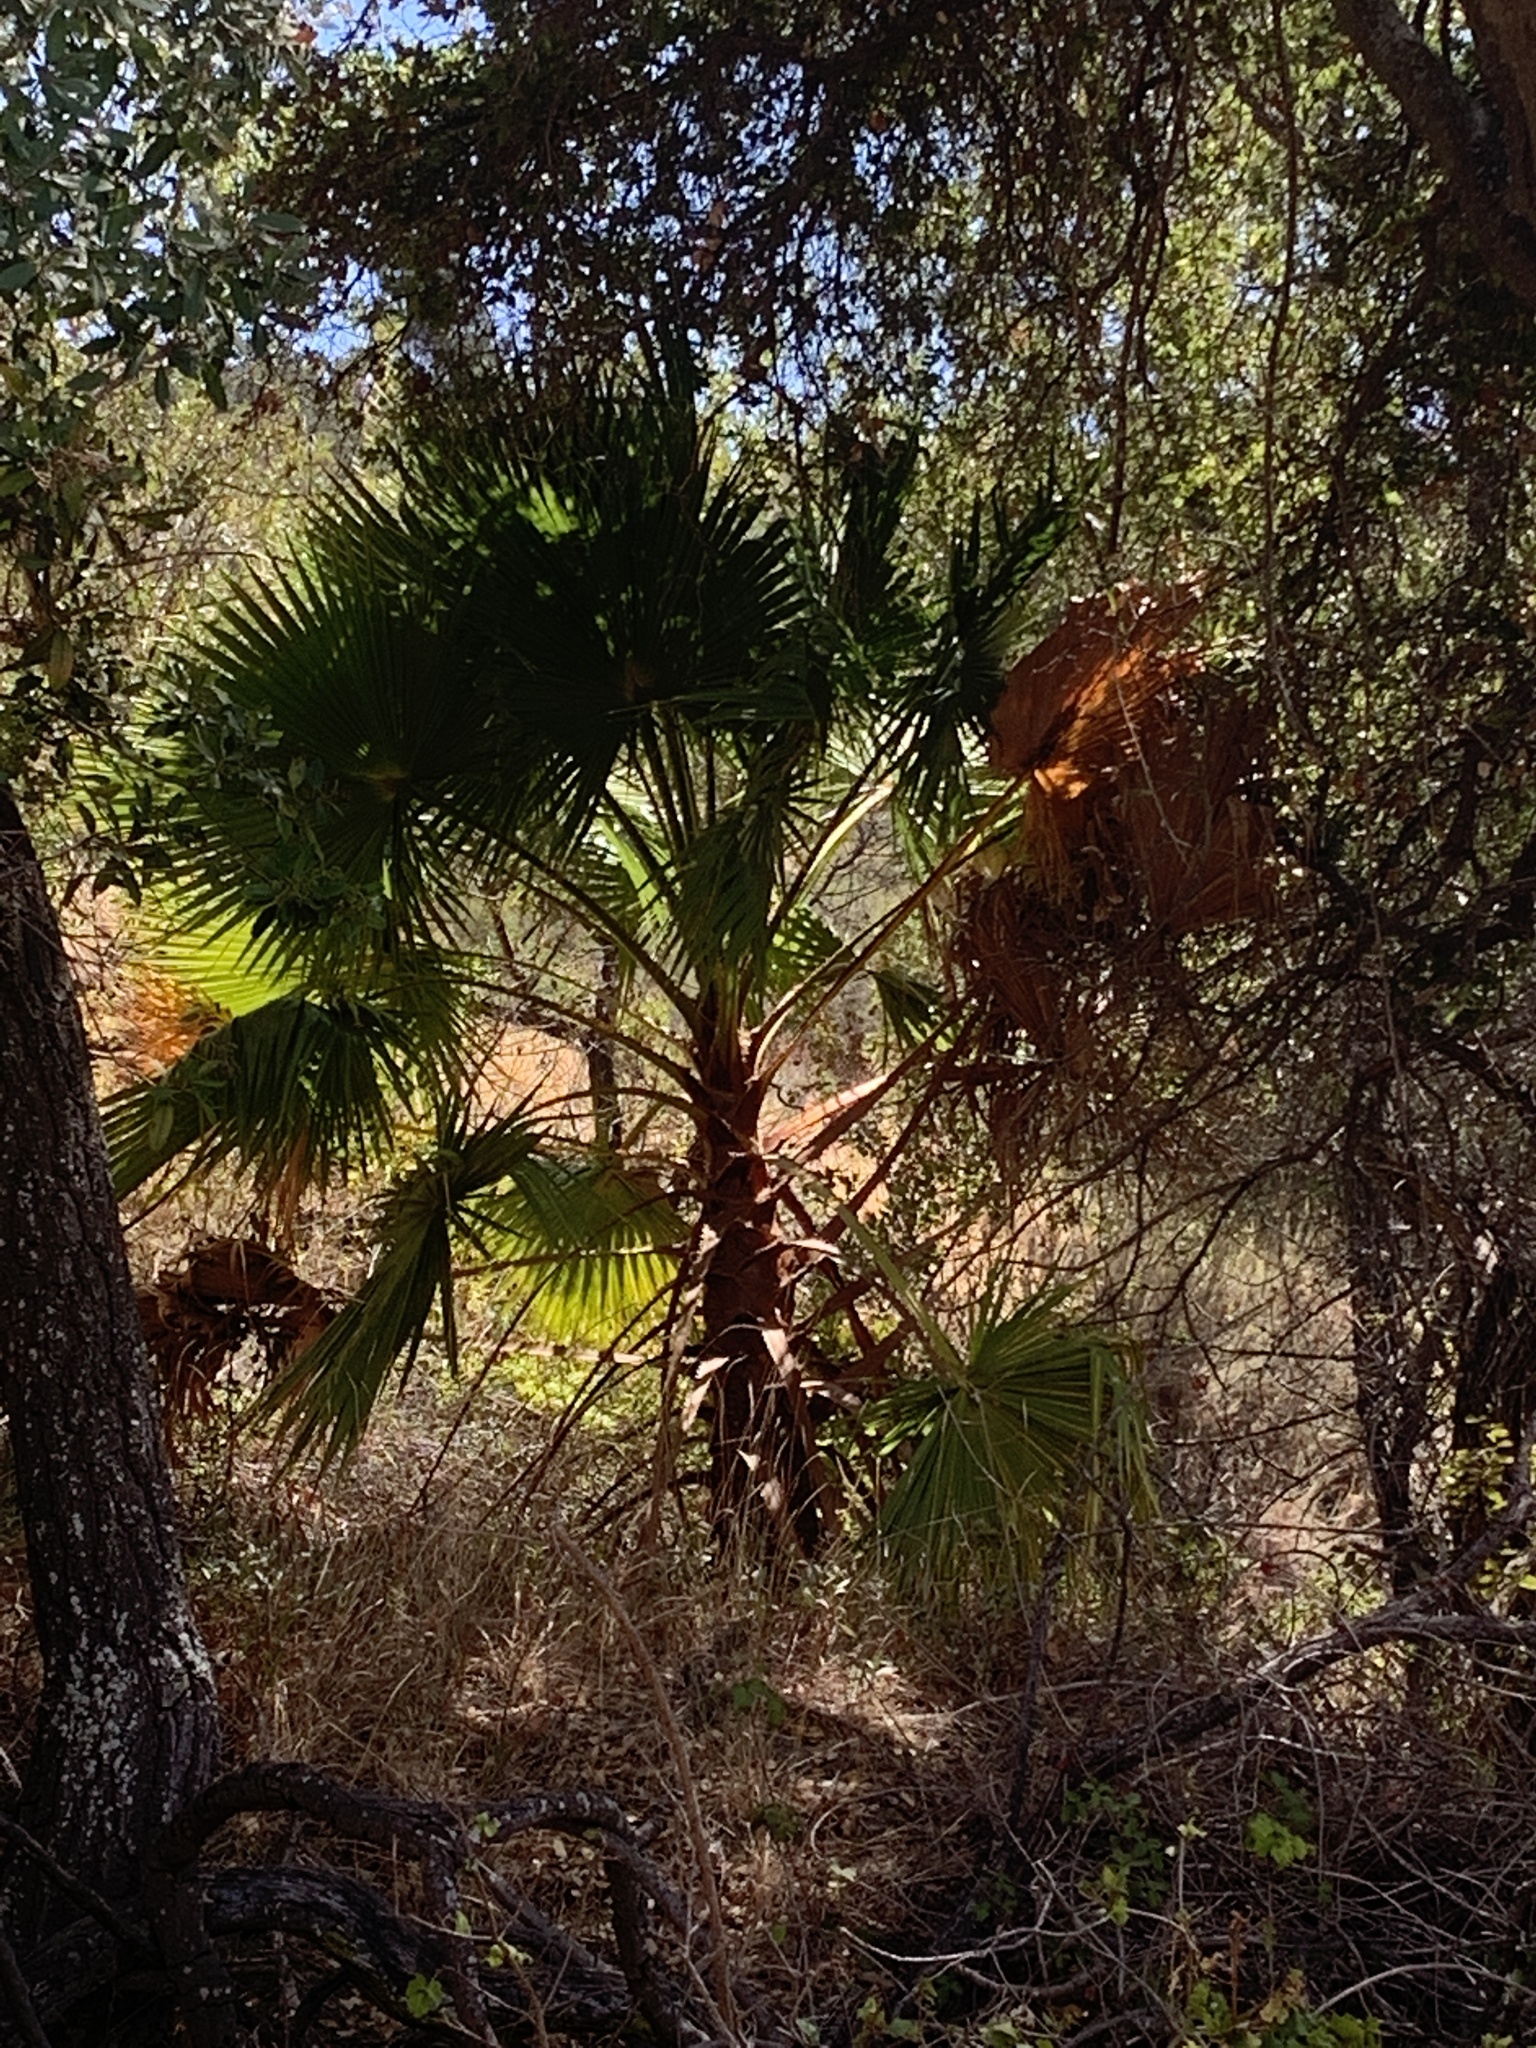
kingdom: Plantae
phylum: Tracheophyta
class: Liliopsida
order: Arecales
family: Arecaceae
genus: Washingtonia
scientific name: Washingtonia robusta
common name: Mexican fan palm
